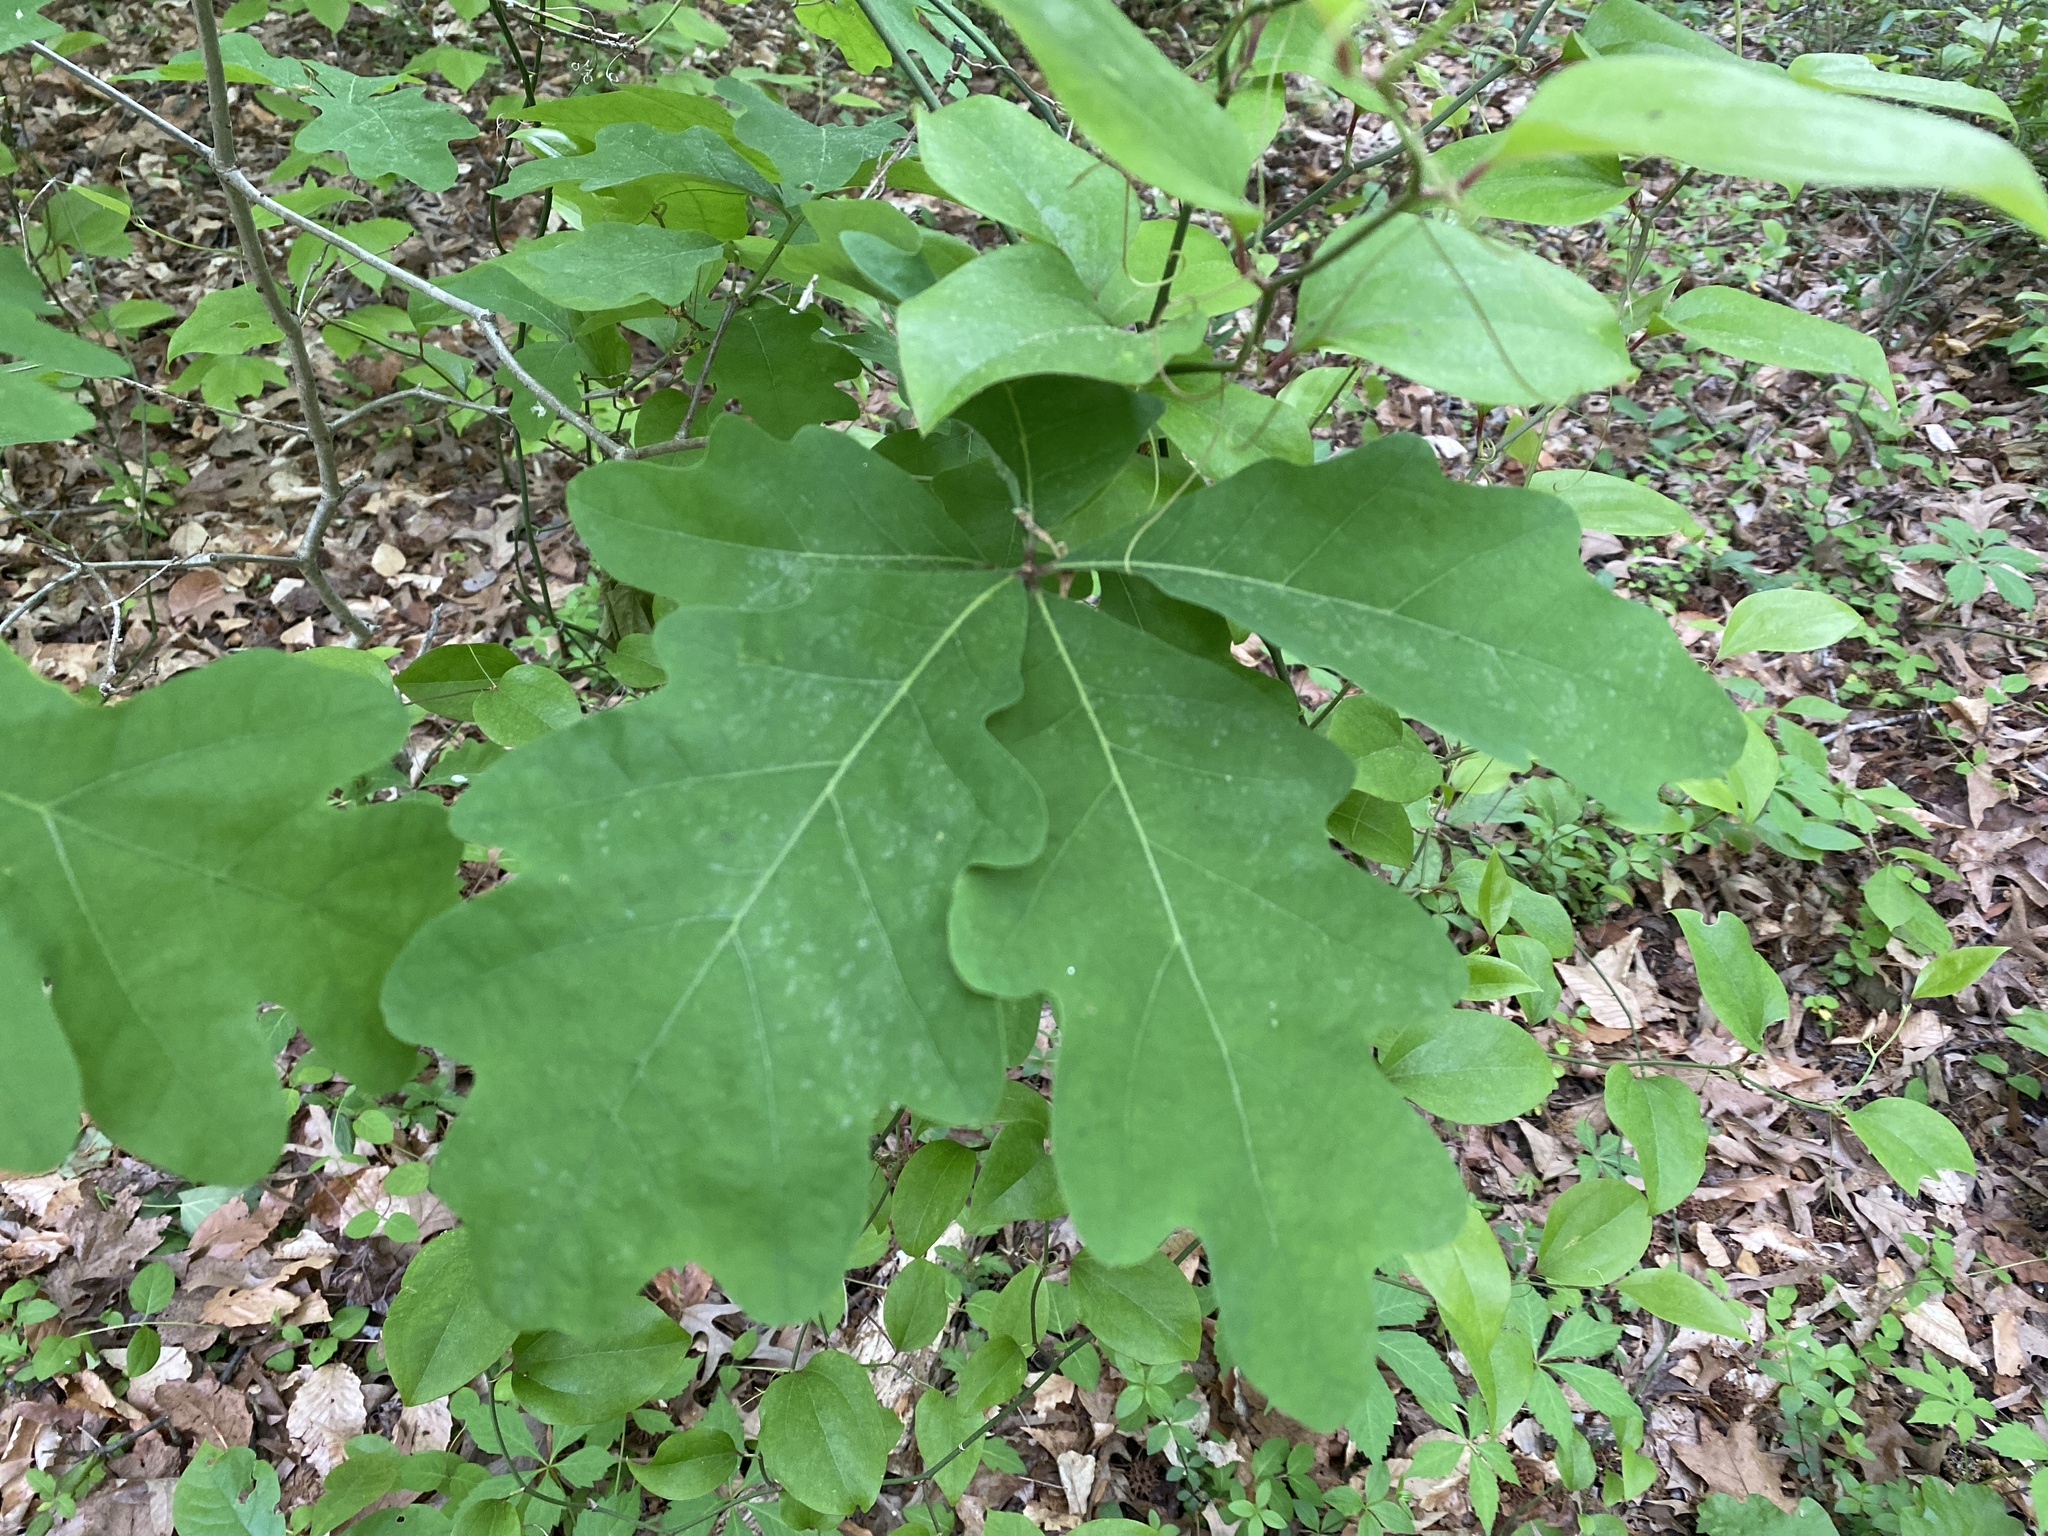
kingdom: Plantae
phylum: Tracheophyta
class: Magnoliopsida
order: Fagales
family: Fagaceae
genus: Quercus
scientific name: Quercus alba
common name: White oak
